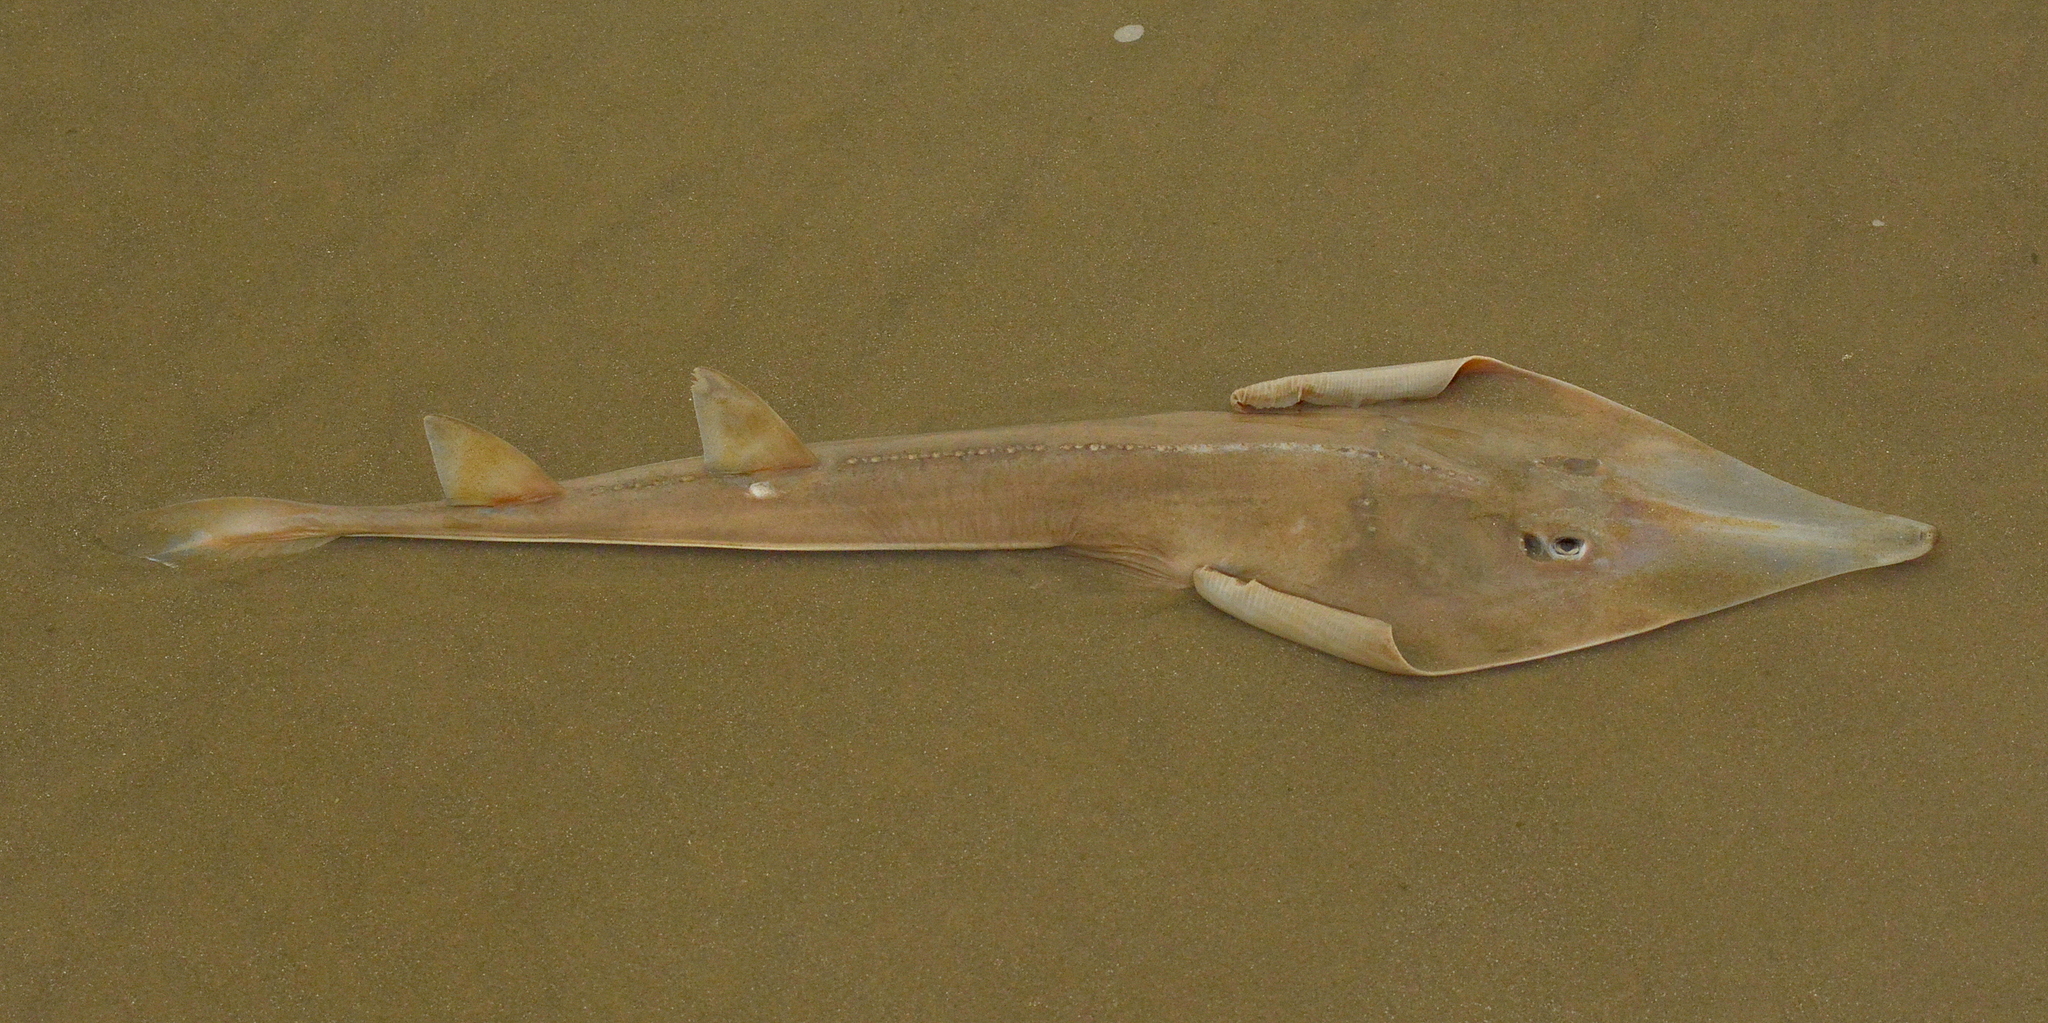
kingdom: Animalia
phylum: Chordata
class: Elasmobranchii
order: Rhinopristiformes
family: Rhinobatidae
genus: Pseudobatos
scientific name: Pseudobatos horkelii
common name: Brazilian guitarfish
